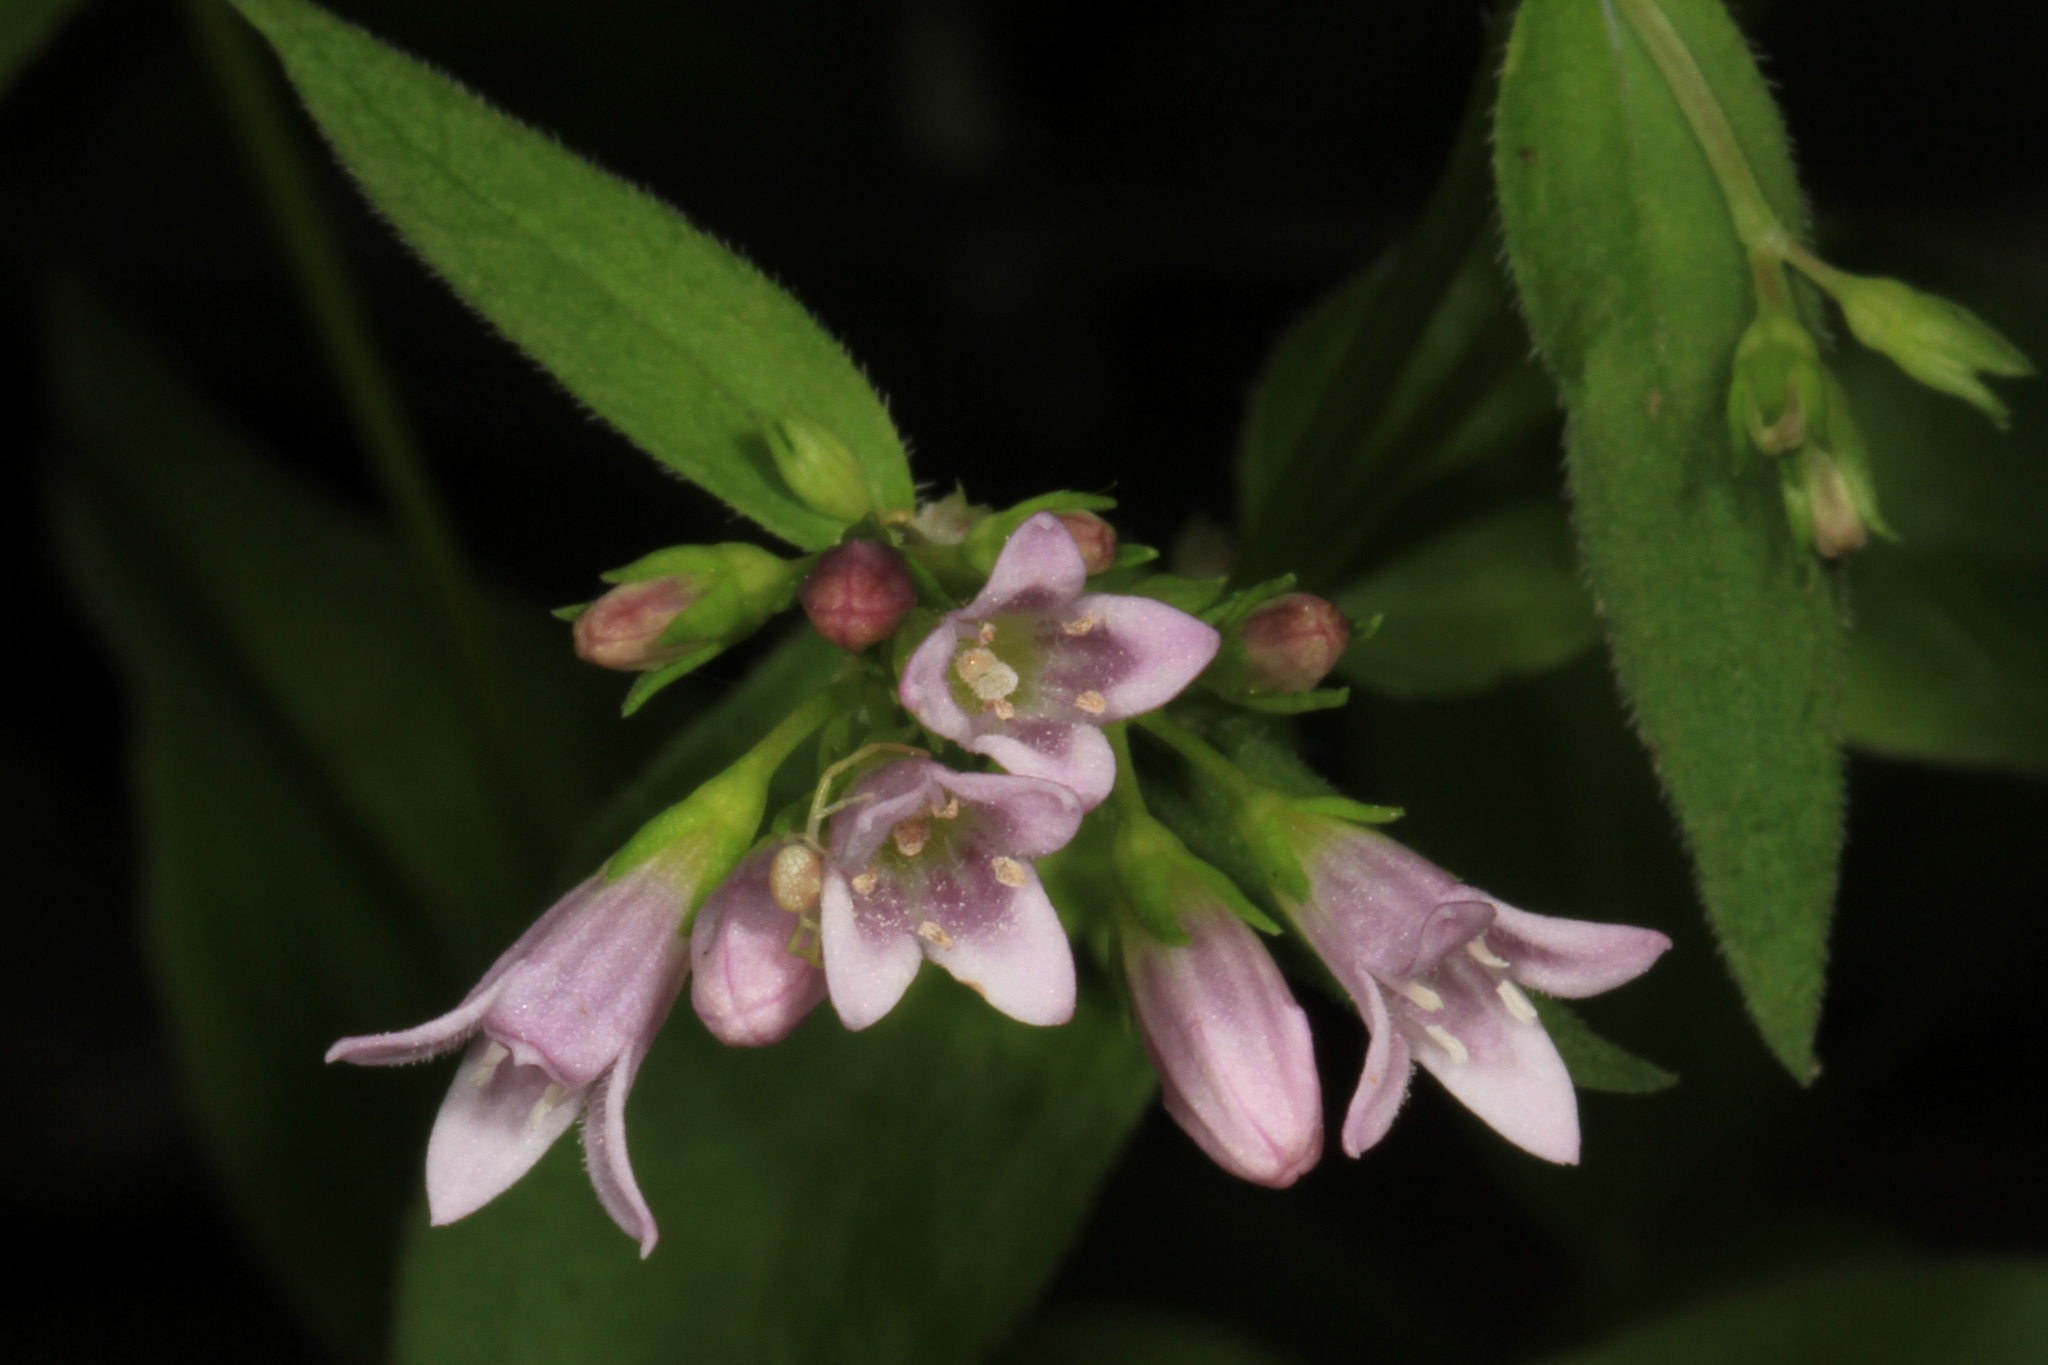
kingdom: Plantae
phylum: Tracheophyta
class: Magnoliopsida
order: Gentianales
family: Rubiaceae
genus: Houstonia
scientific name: Houstonia purpurea
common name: Summer bluet
